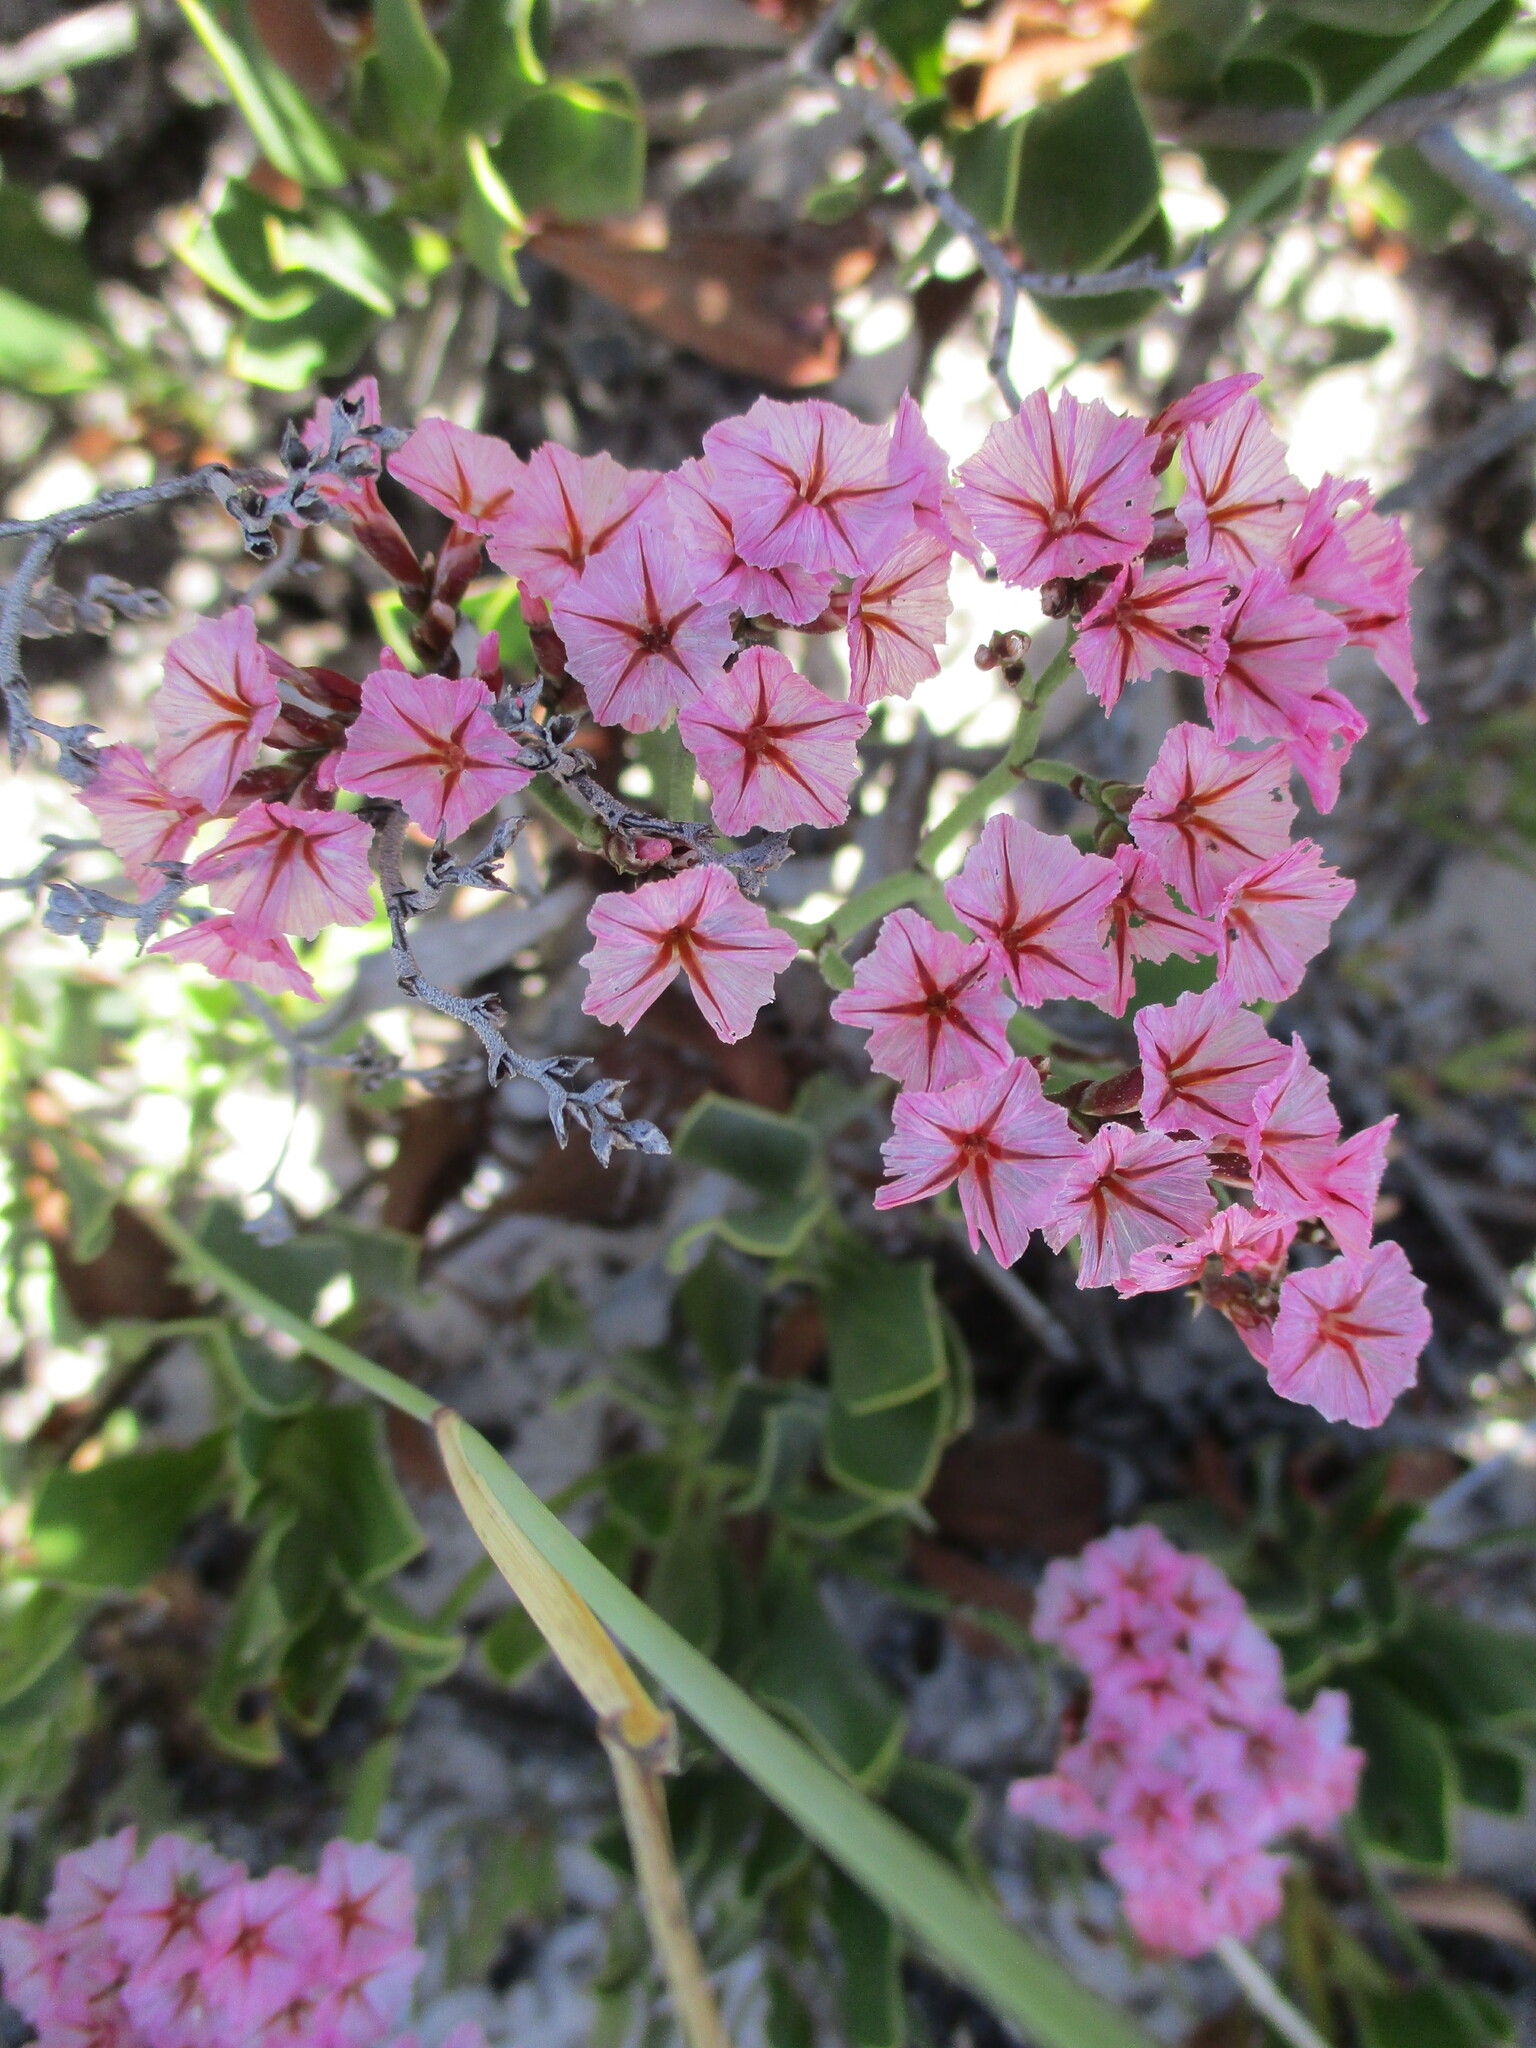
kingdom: Plantae
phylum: Tracheophyta
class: Magnoliopsida
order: Caryophyllales
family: Plumbaginaceae
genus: Limonium
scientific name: Limonium peregrinum
